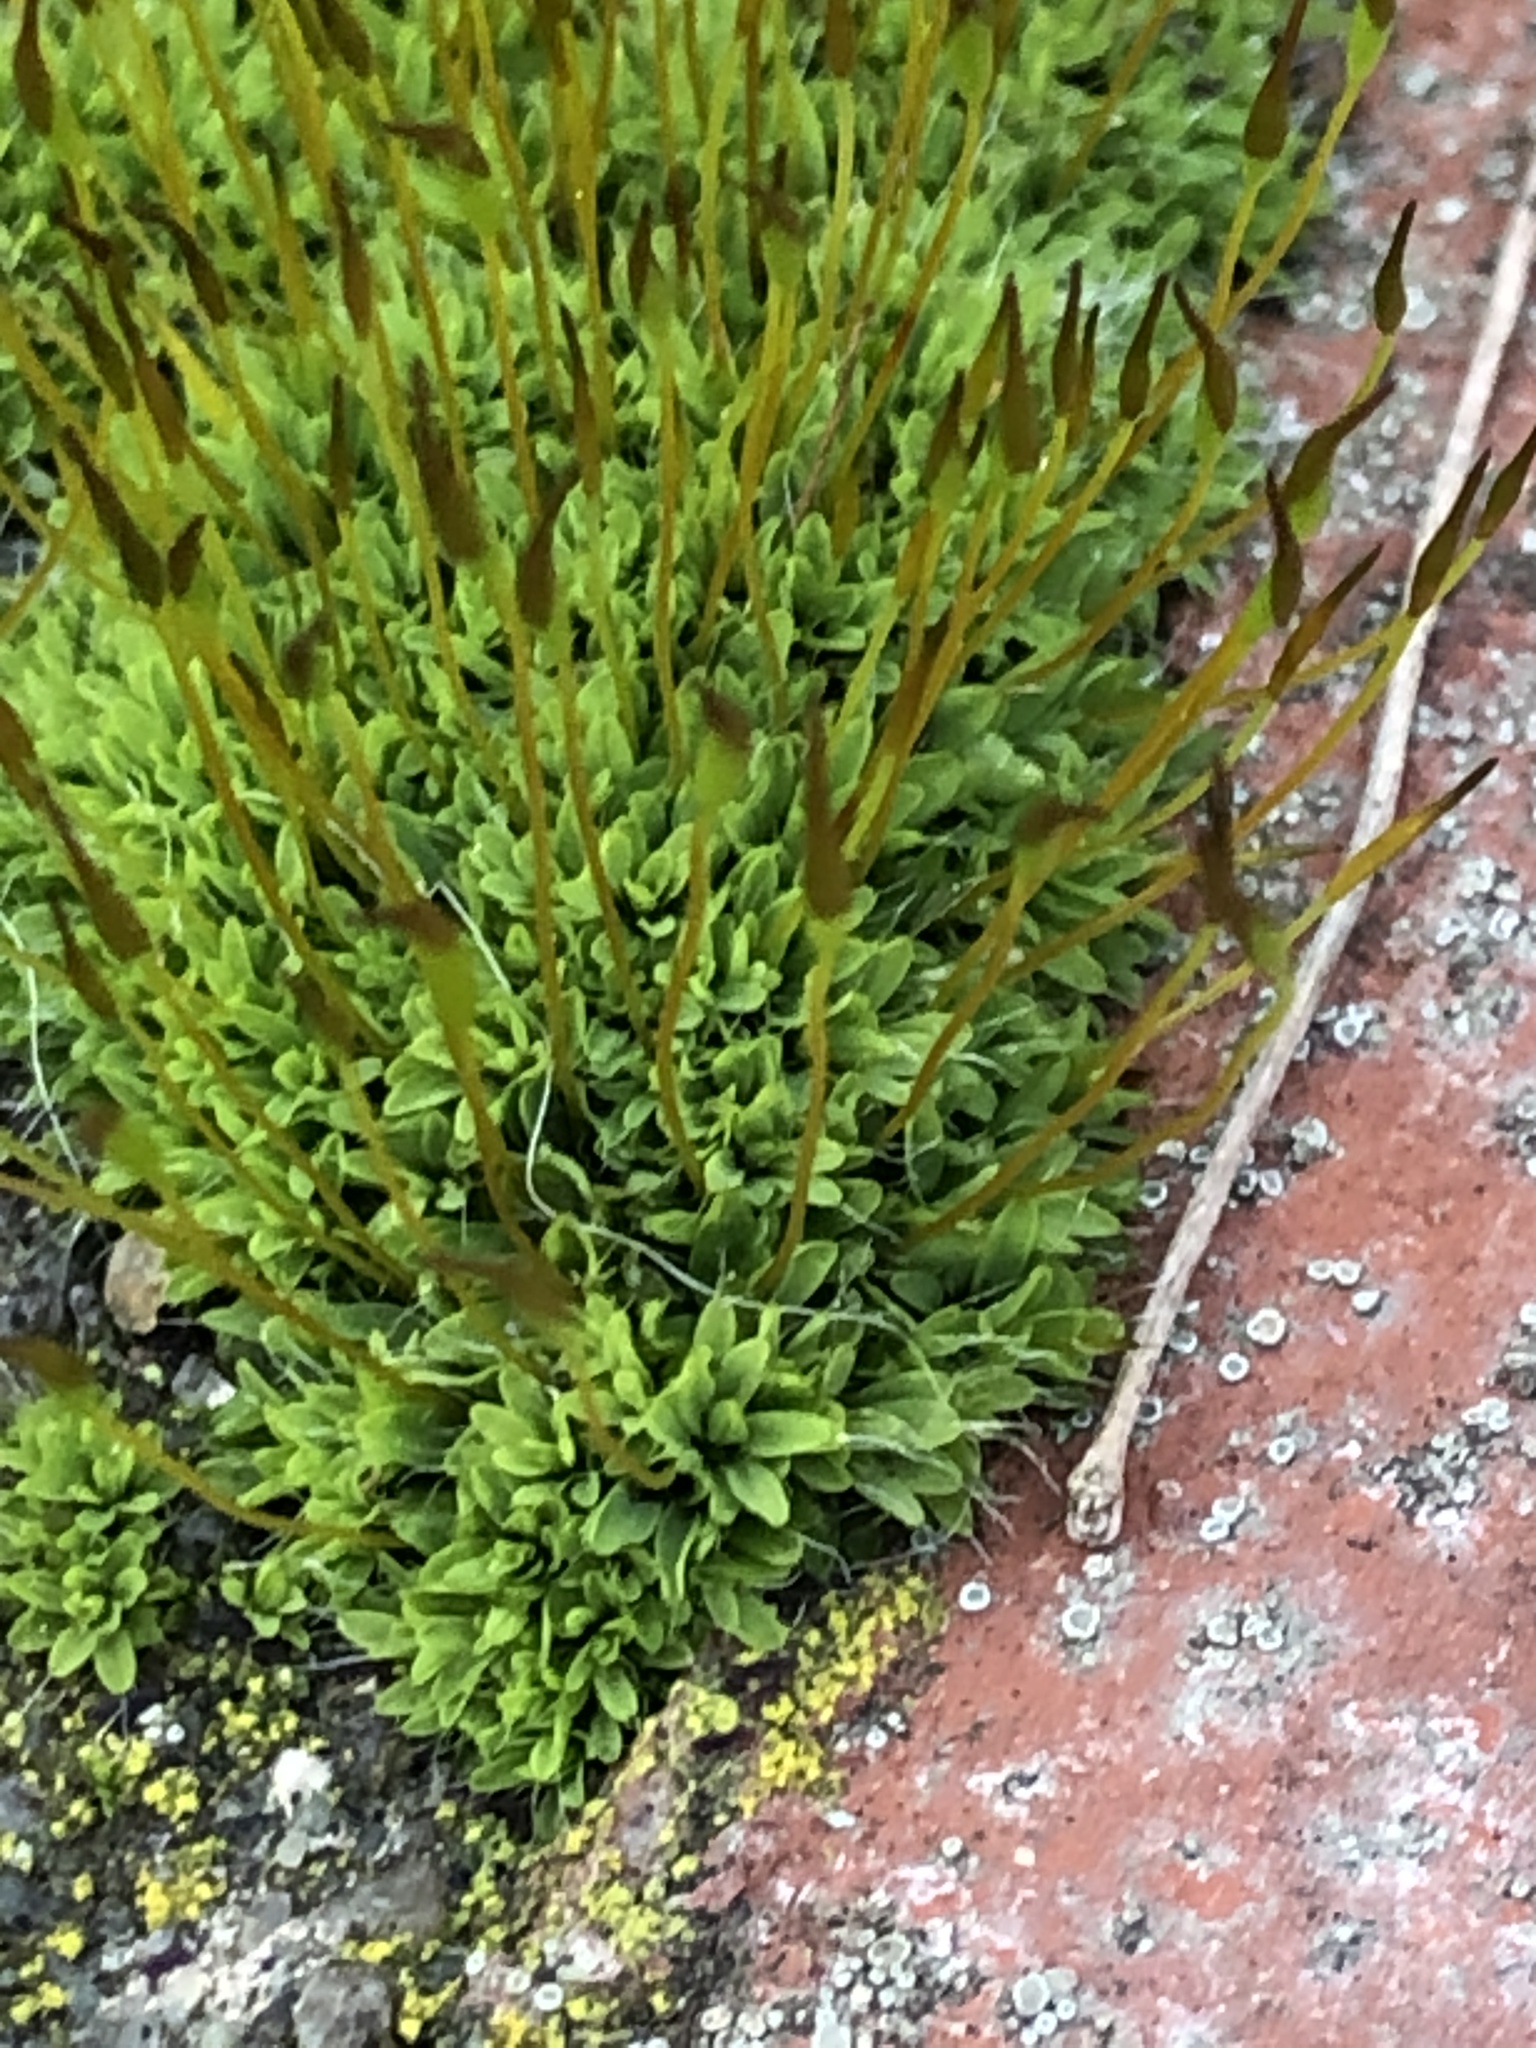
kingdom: Plantae
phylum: Bryophyta
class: Bryopsida
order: Pottiales
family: Pottiaceae
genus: Tortula
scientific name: Tortula muralis
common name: Wall screw-moss
